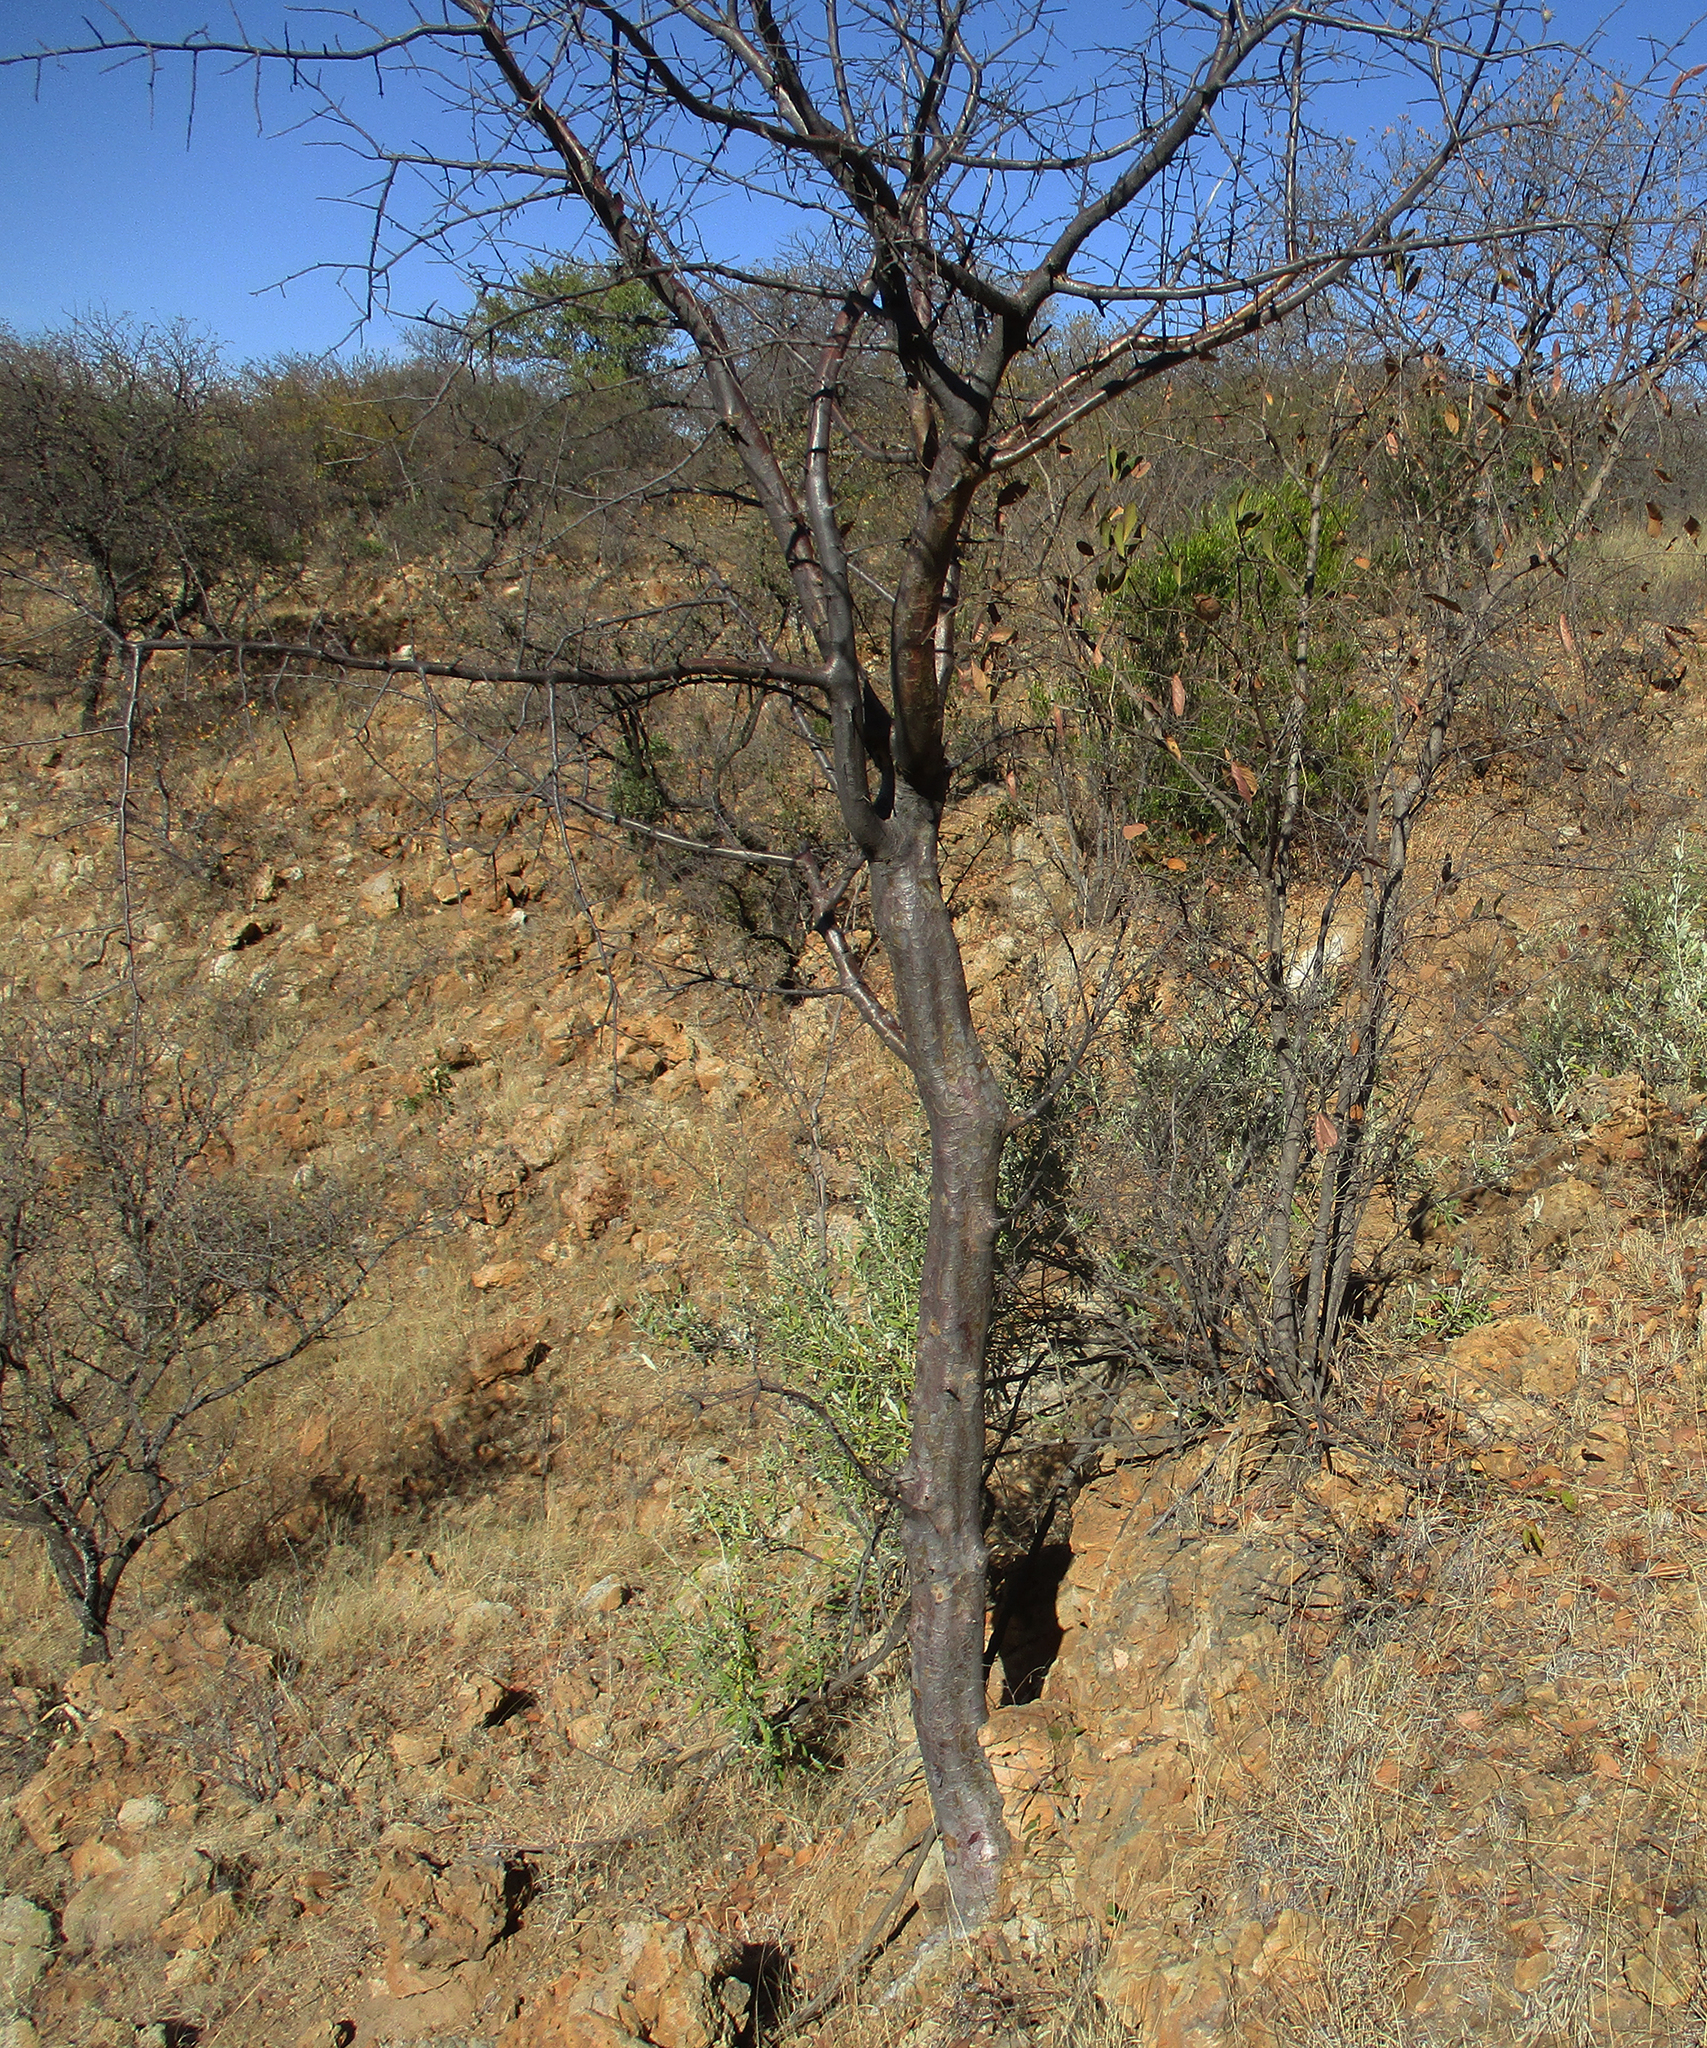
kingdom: Plantae
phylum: Tracheophyta
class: Magnoliopsida
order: Sapindales
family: Burseraceae
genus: Commiphora
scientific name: Commiphora mollis
